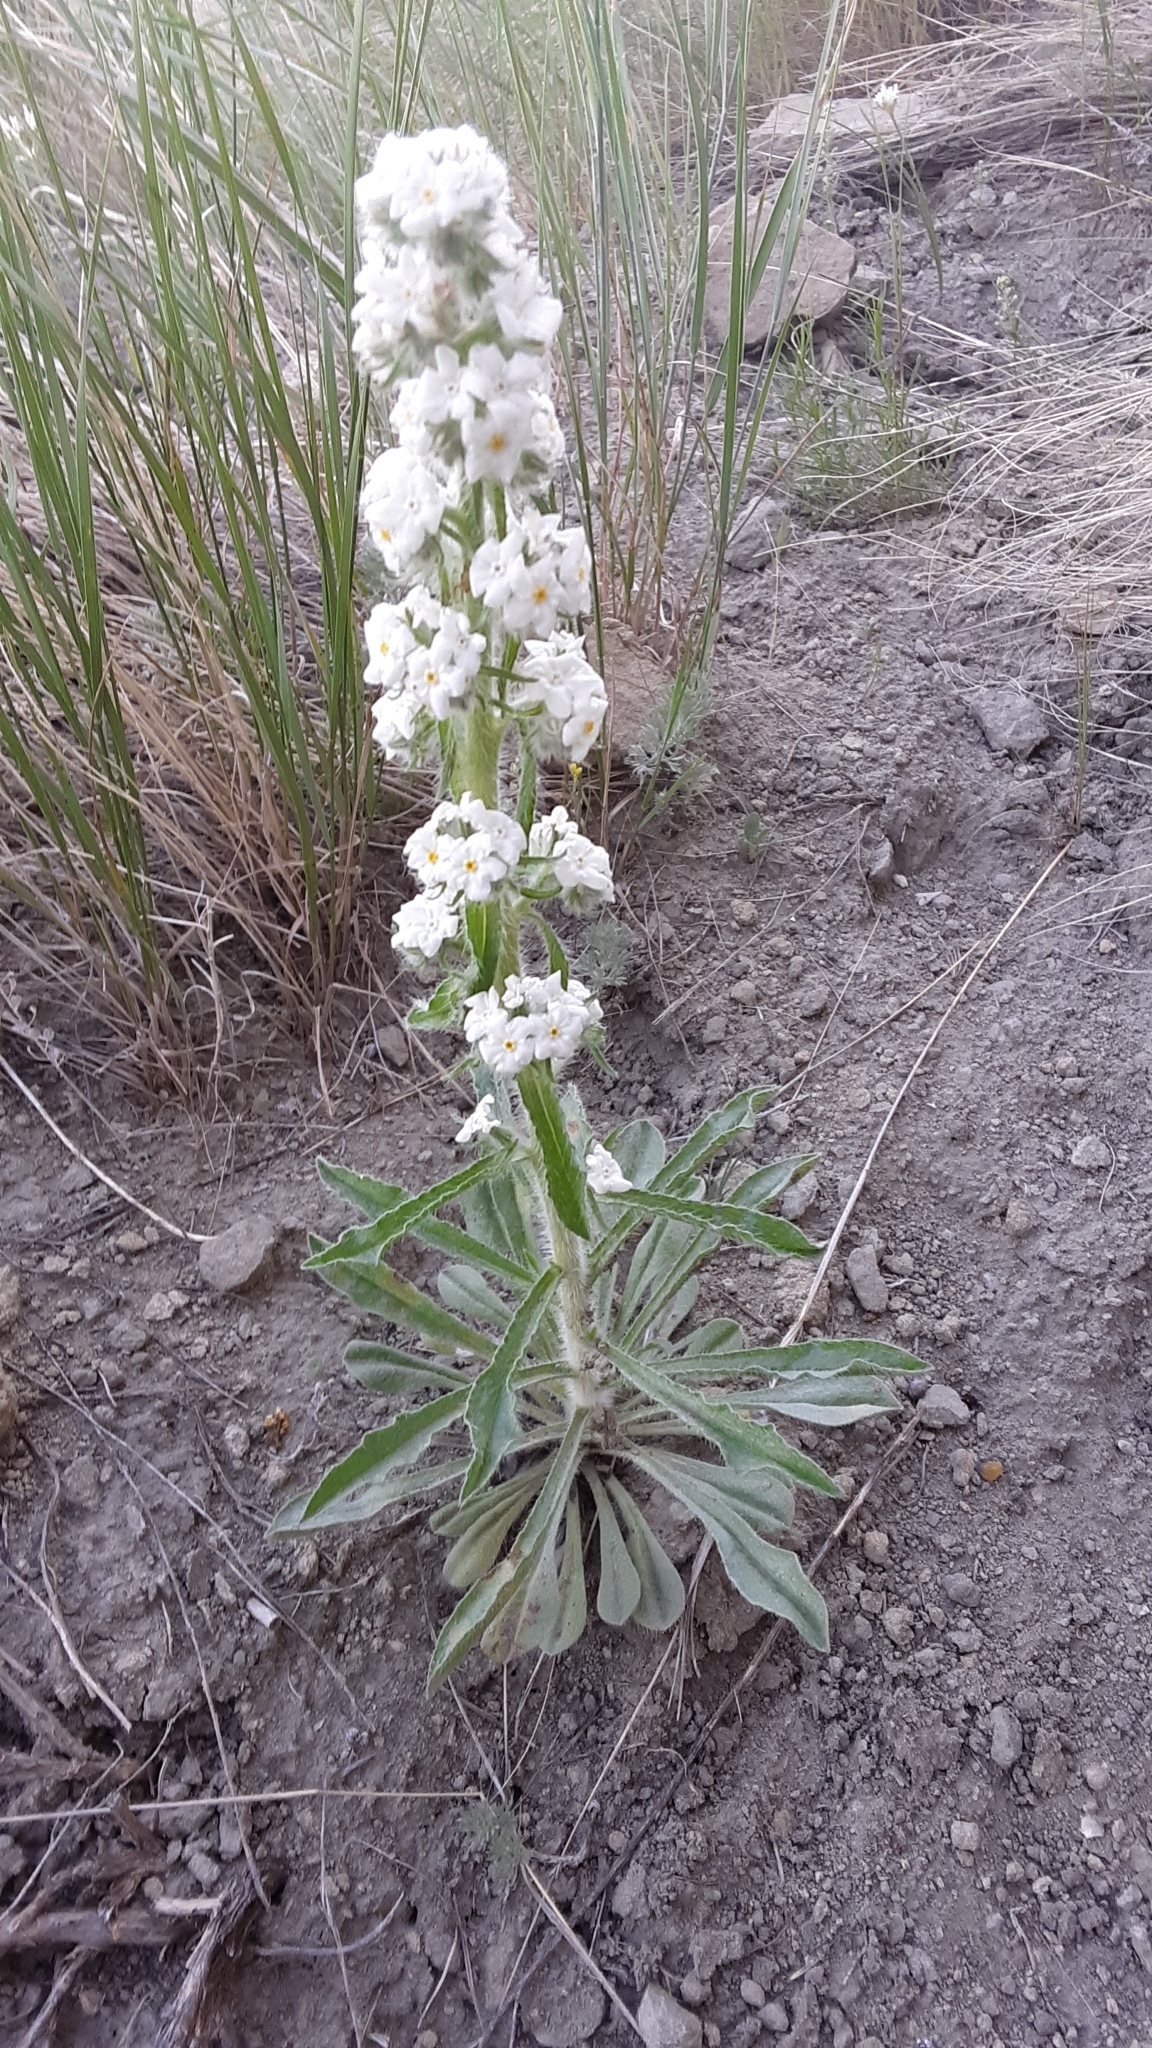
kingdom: Plantae
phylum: Tracheophyta
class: Magnoliopsida
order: Boraginales
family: Boraginaceae
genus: Oreocarya
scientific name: Oreocarya glomerata
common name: Macoun's cryptantha
